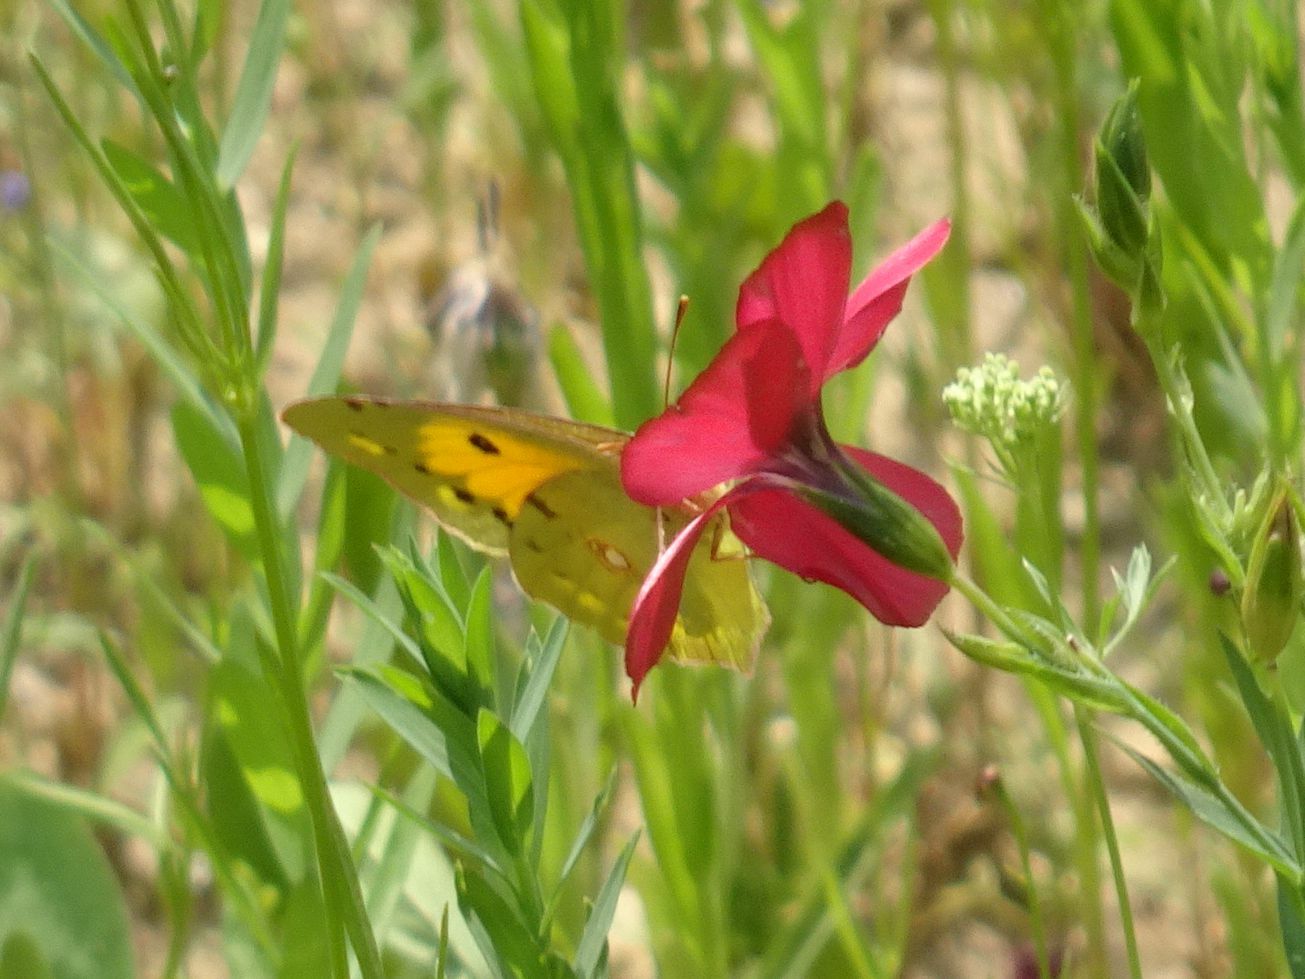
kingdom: Animalia
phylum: Arthropoda
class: Insecta
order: Lepidoptera
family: Pieridae
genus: Colias
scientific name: Colias croceus
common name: Clouded yellow
